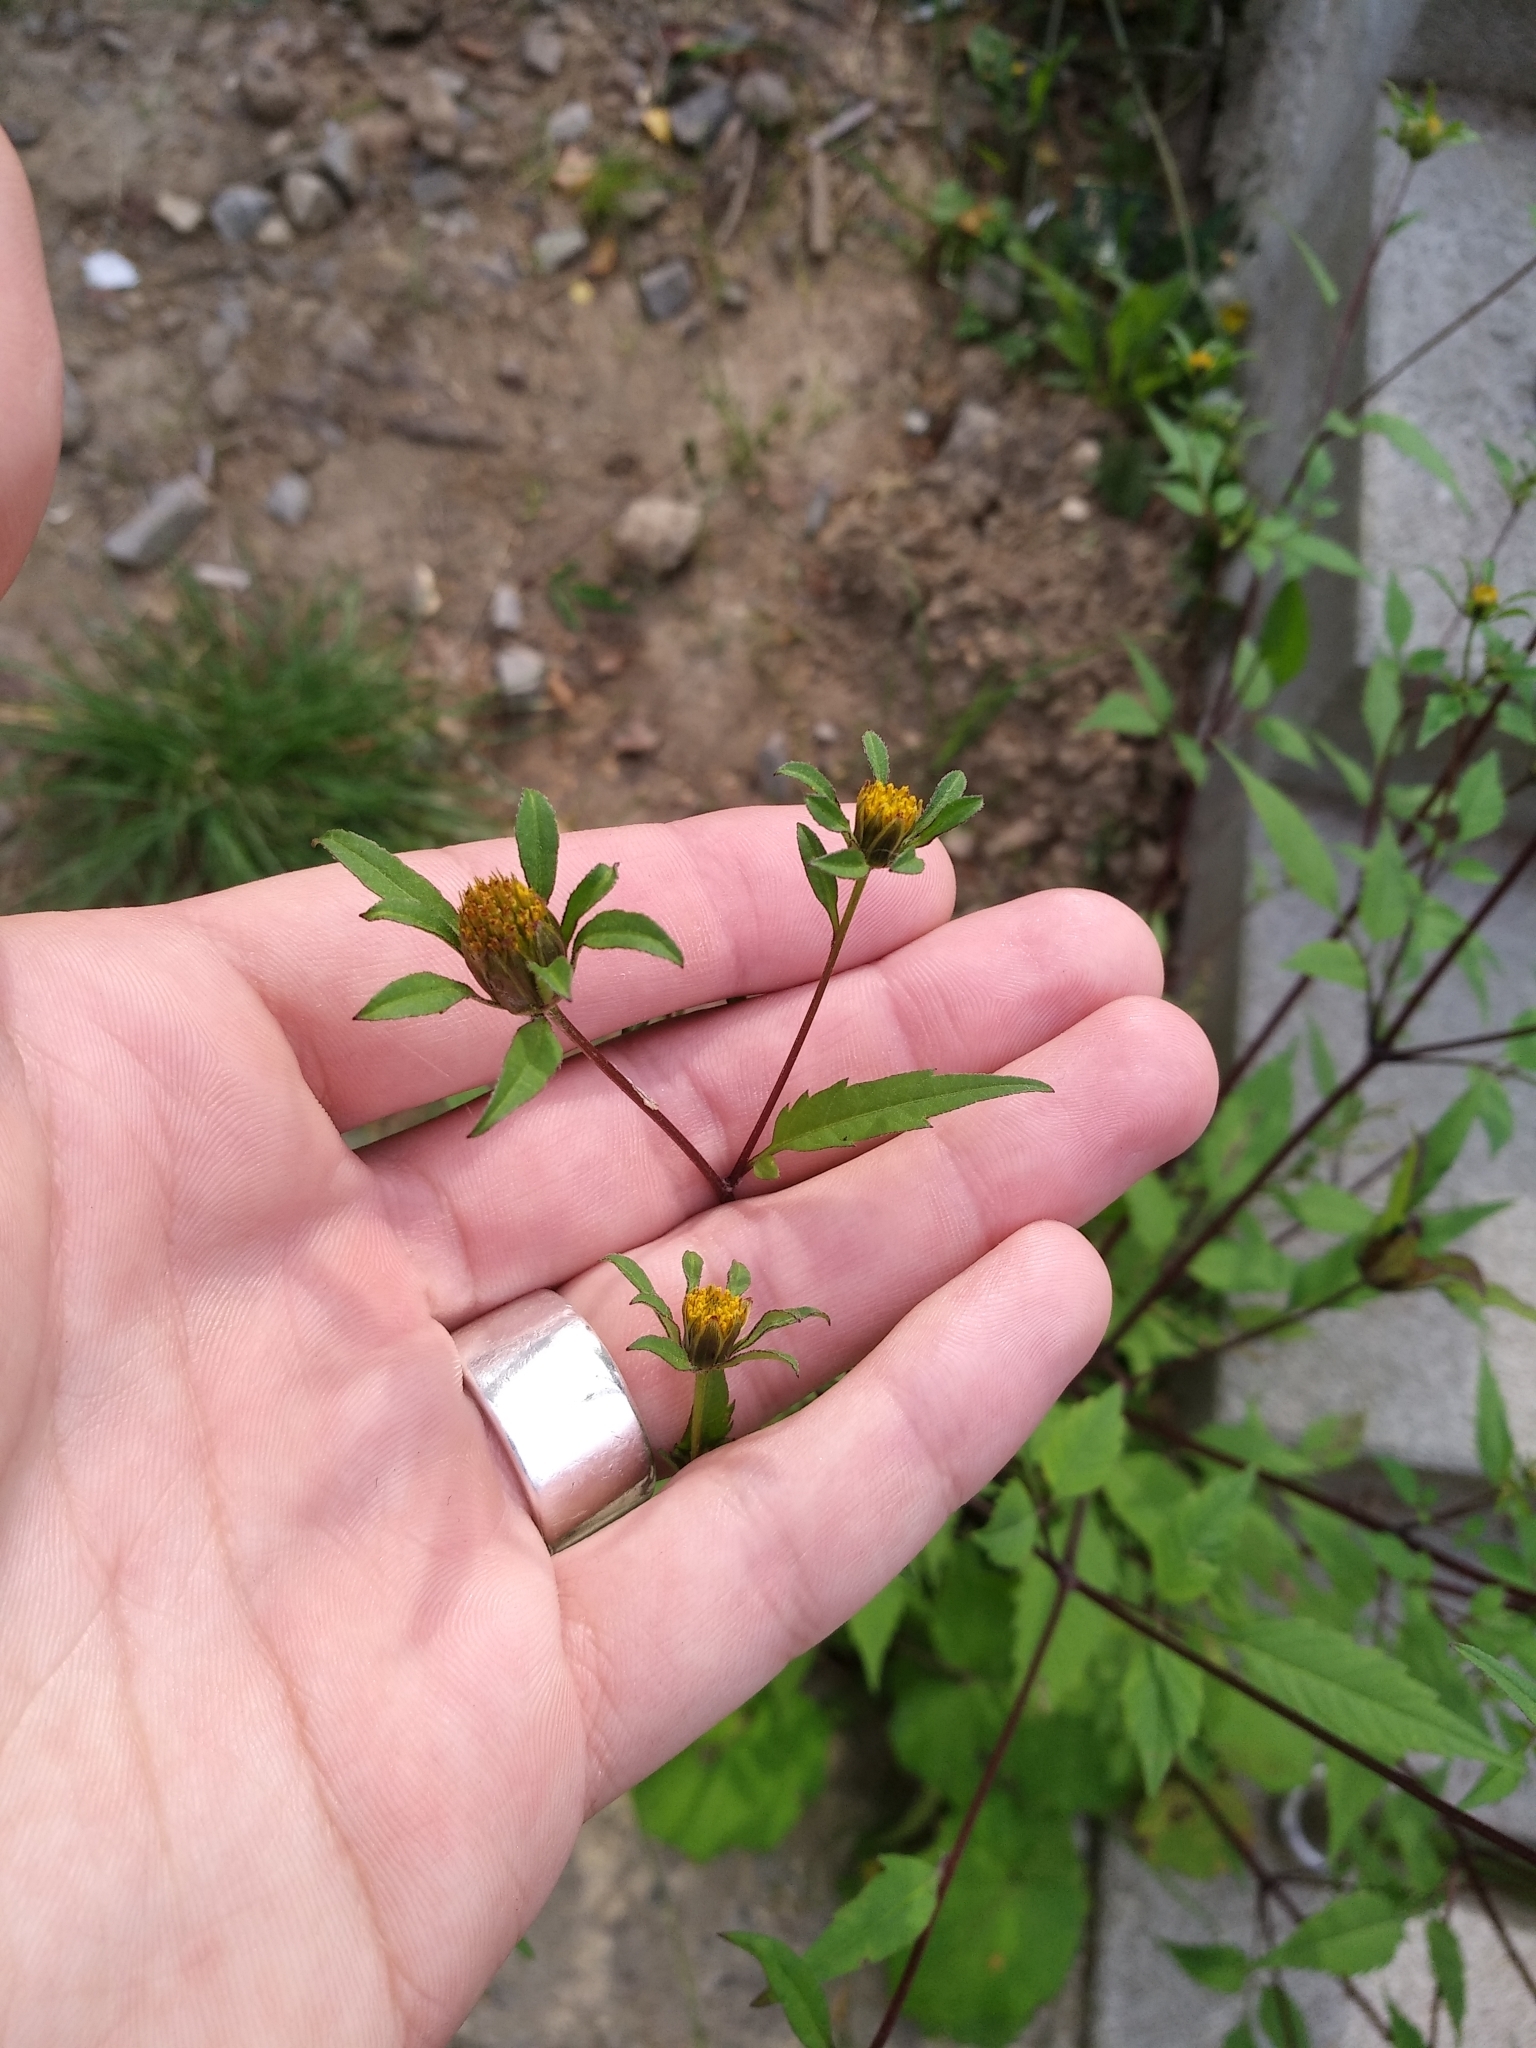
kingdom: Plantae
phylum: Tracheophyta
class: Magnoliopsida
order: Asterales
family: Asteraceae
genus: Bidens
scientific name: Bidens frondosa
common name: Beggarticks
